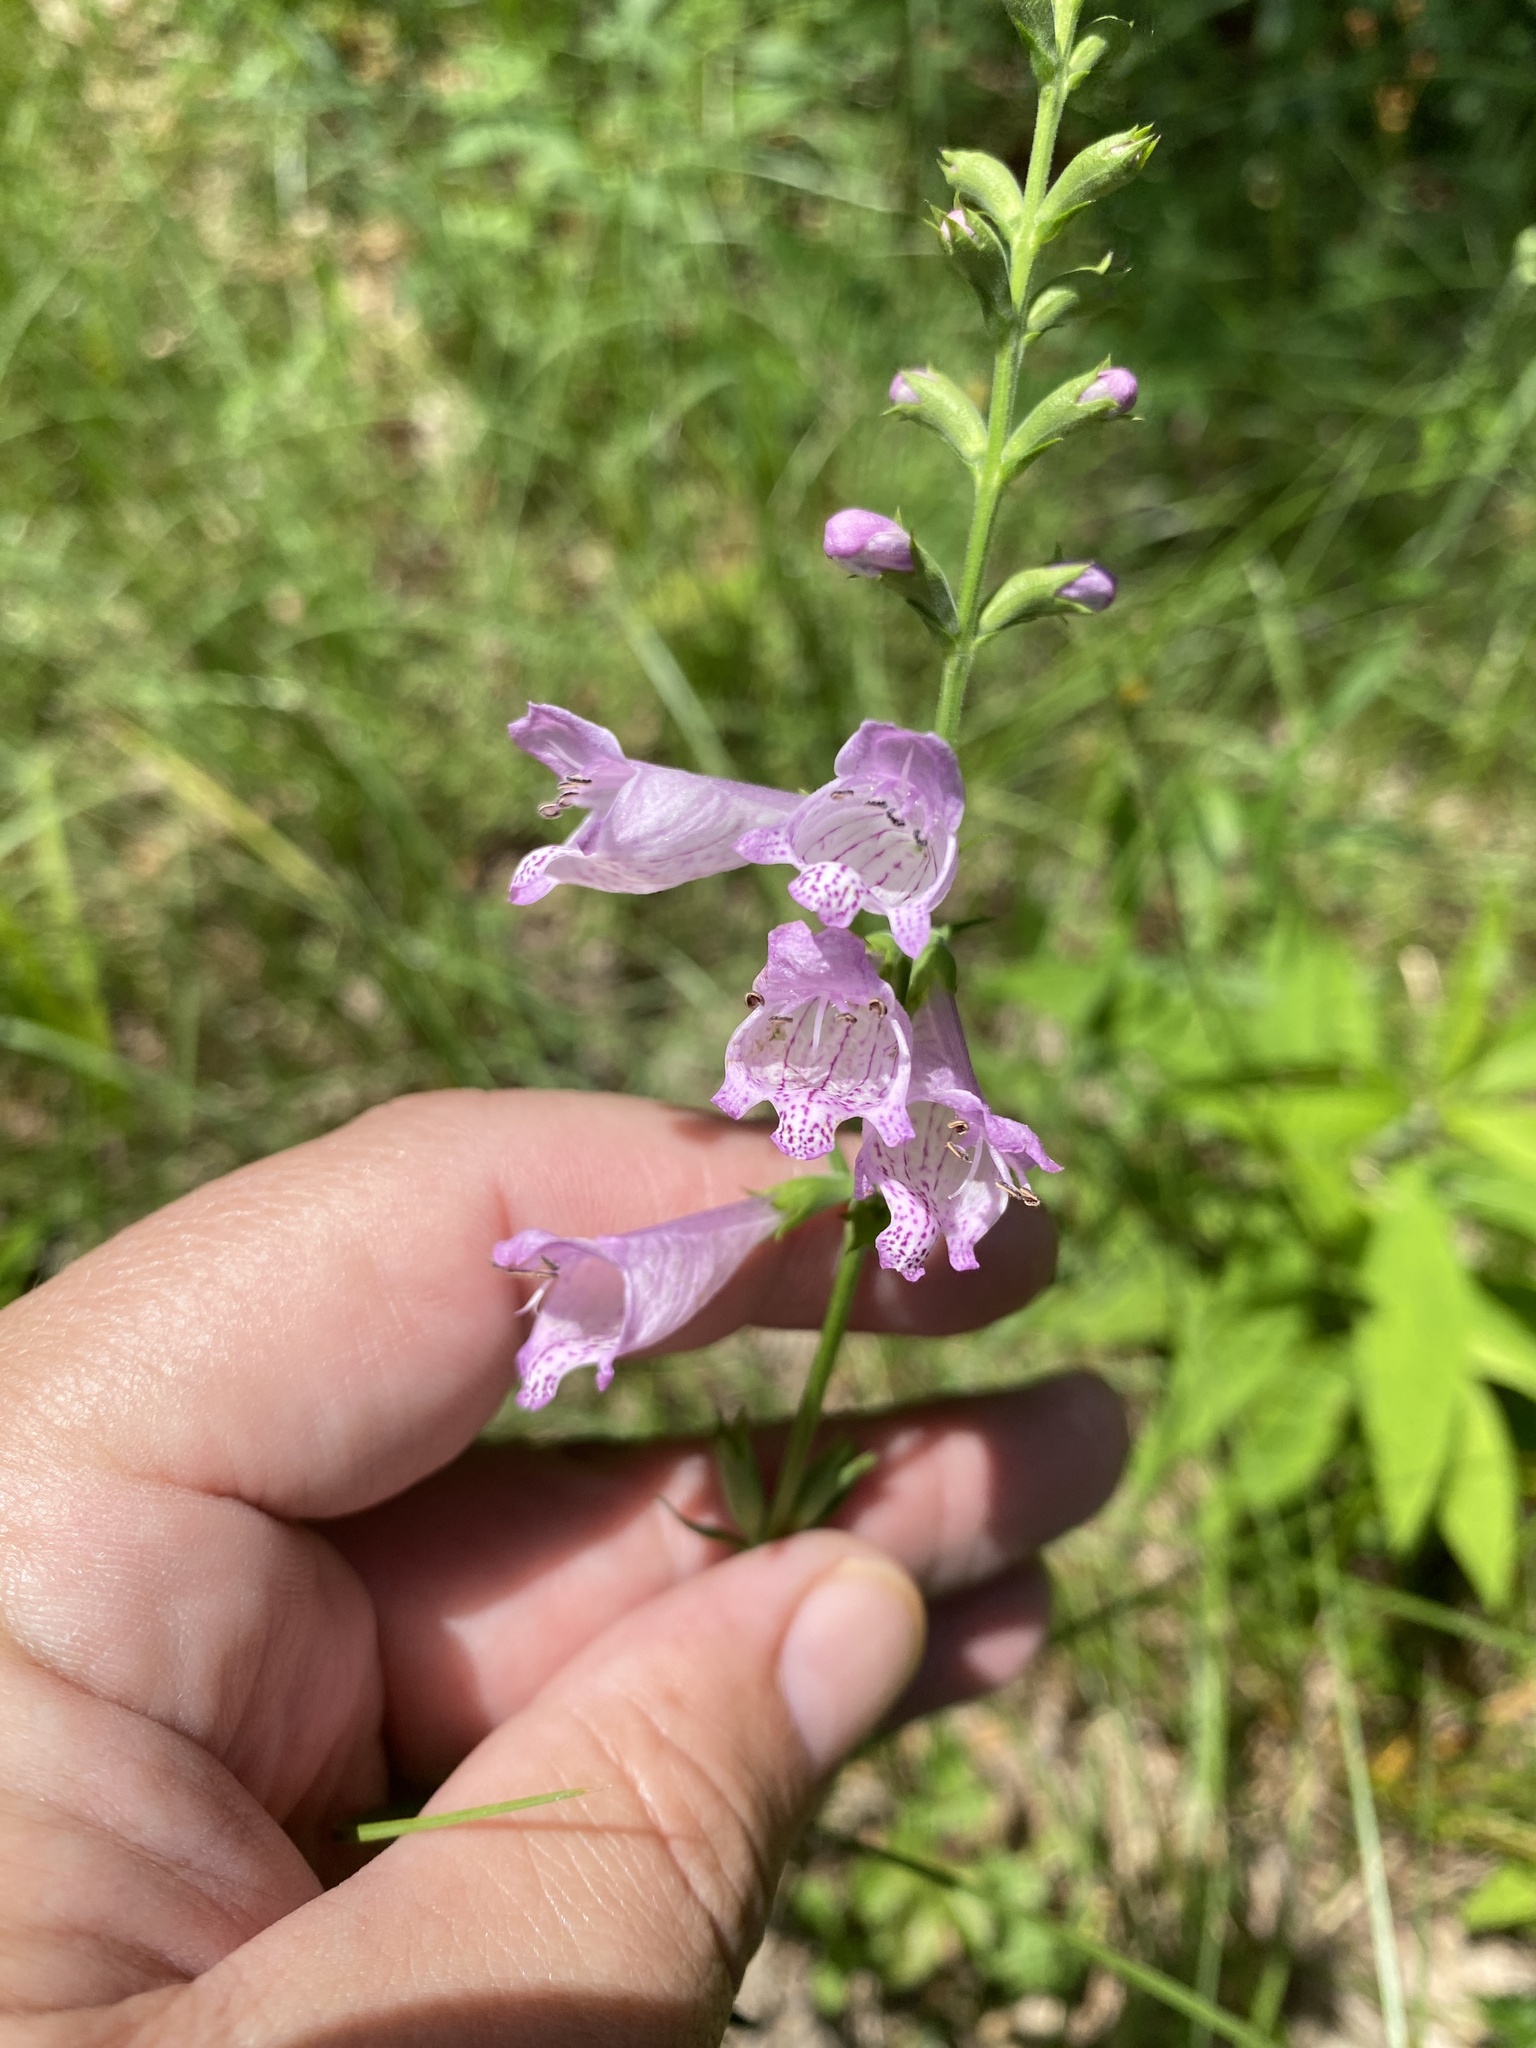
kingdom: Plantae
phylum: Tracheophyta
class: Magnoliopsida
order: Lamiales
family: Lamiaceae
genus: Physostegia
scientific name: Physostegia angustifolia
